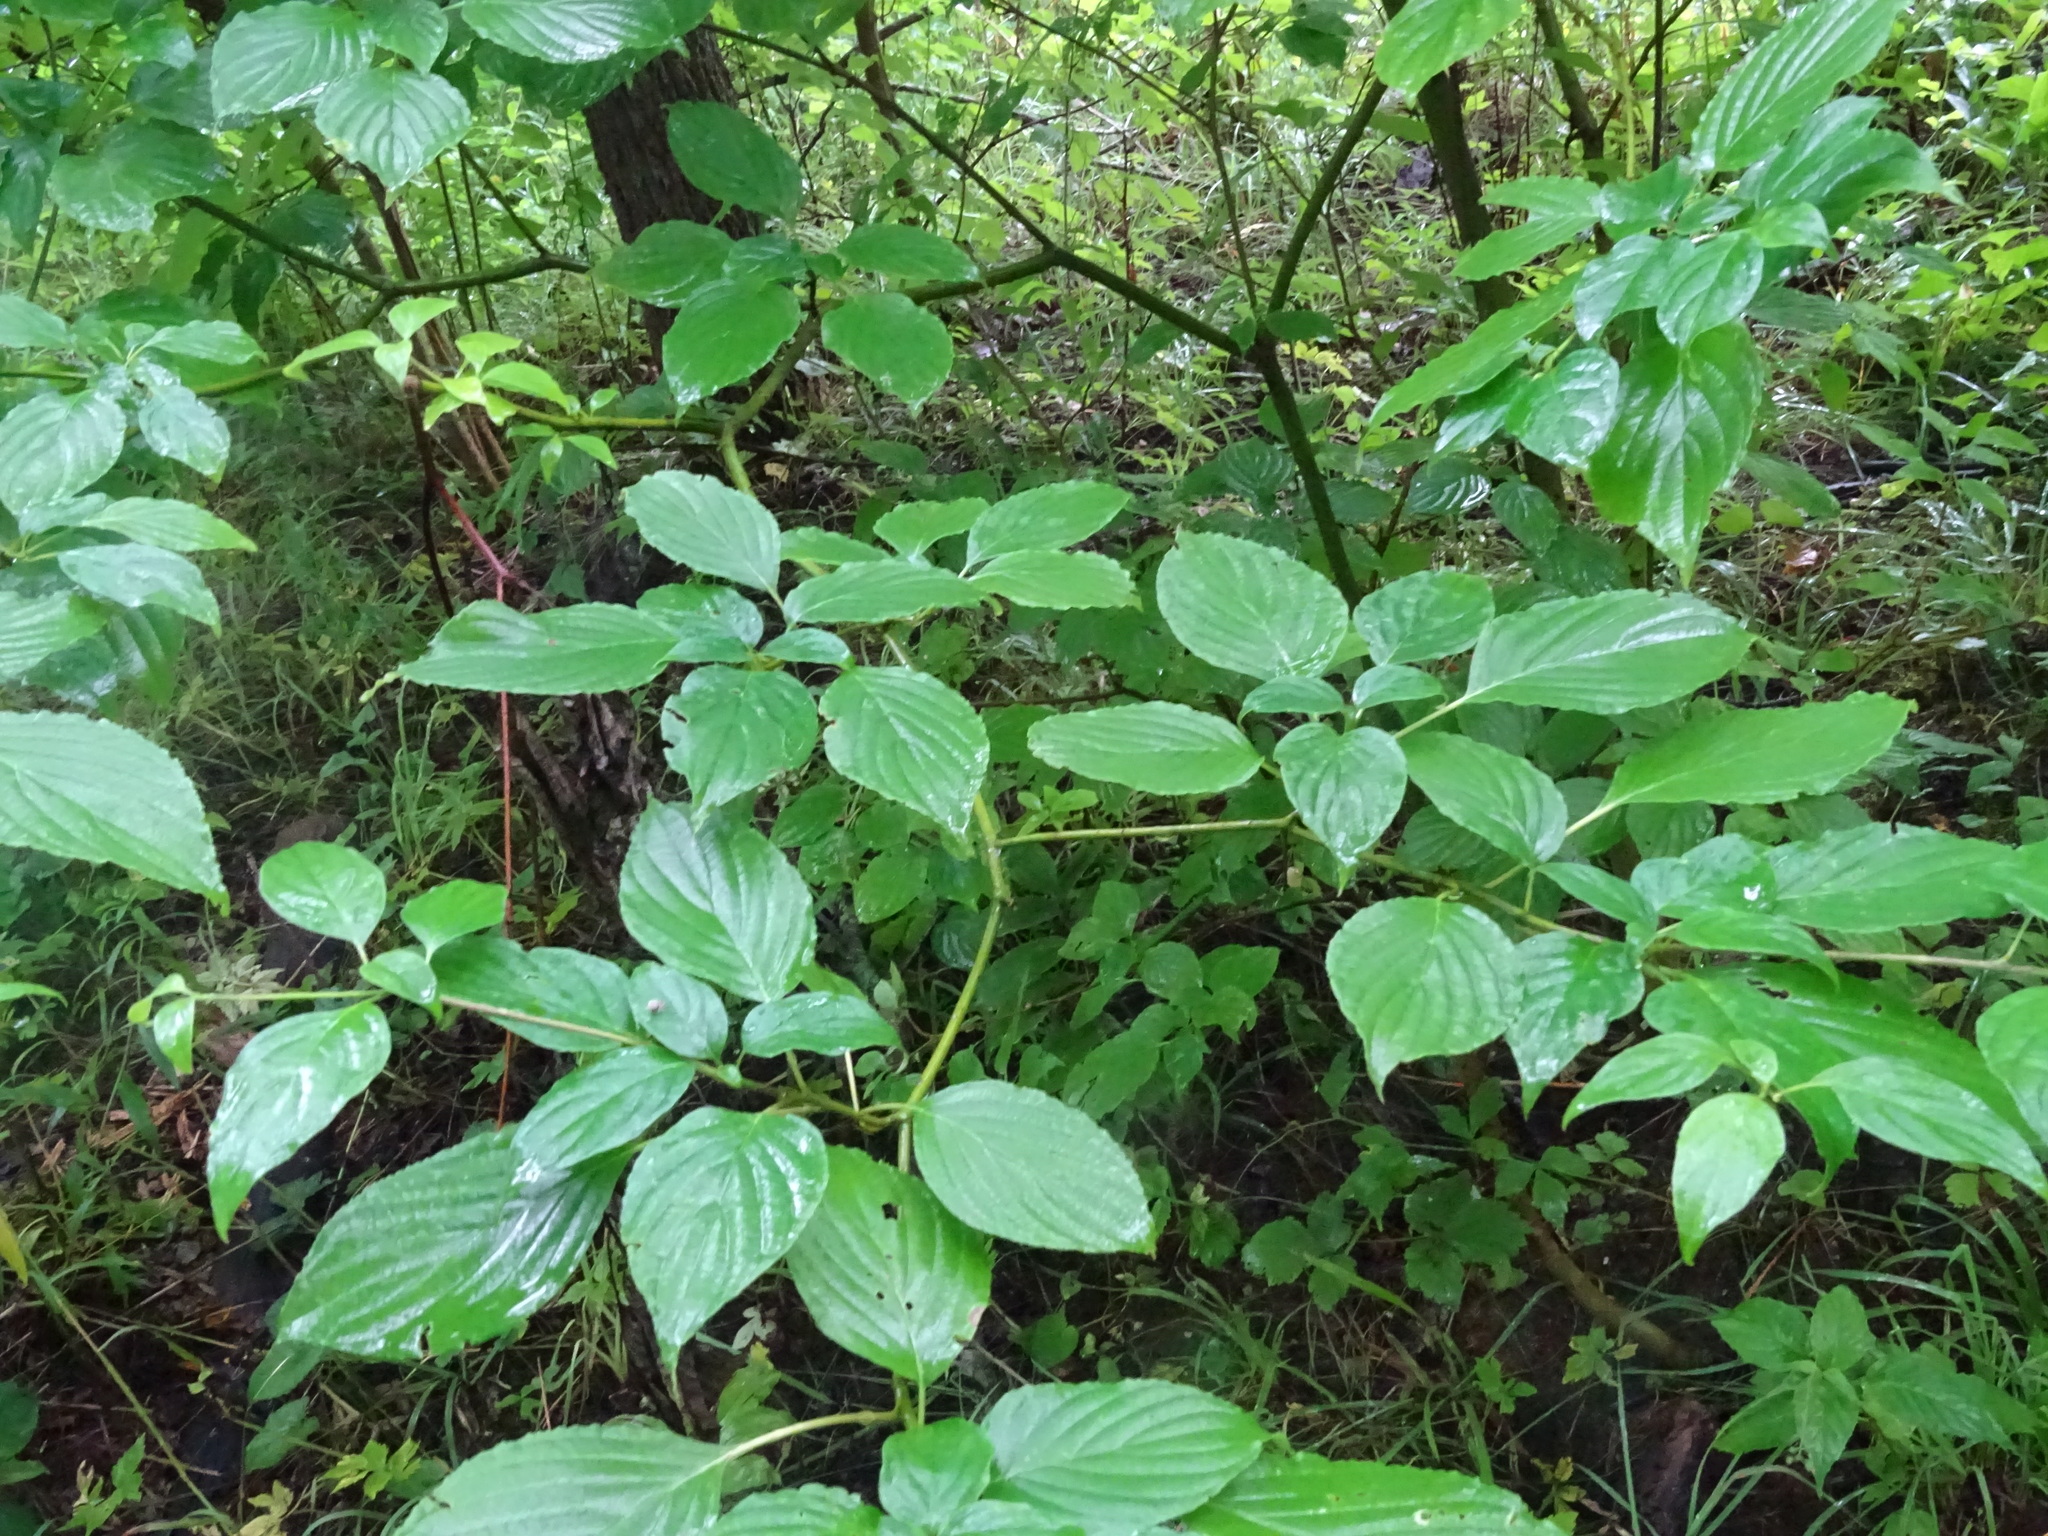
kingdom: Plantae
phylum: Tracheophyta
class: Magnoliopsida
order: Cornales
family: Cornaceae
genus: Cornus
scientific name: Cornus alternifolia
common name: Pagoda dogwood
